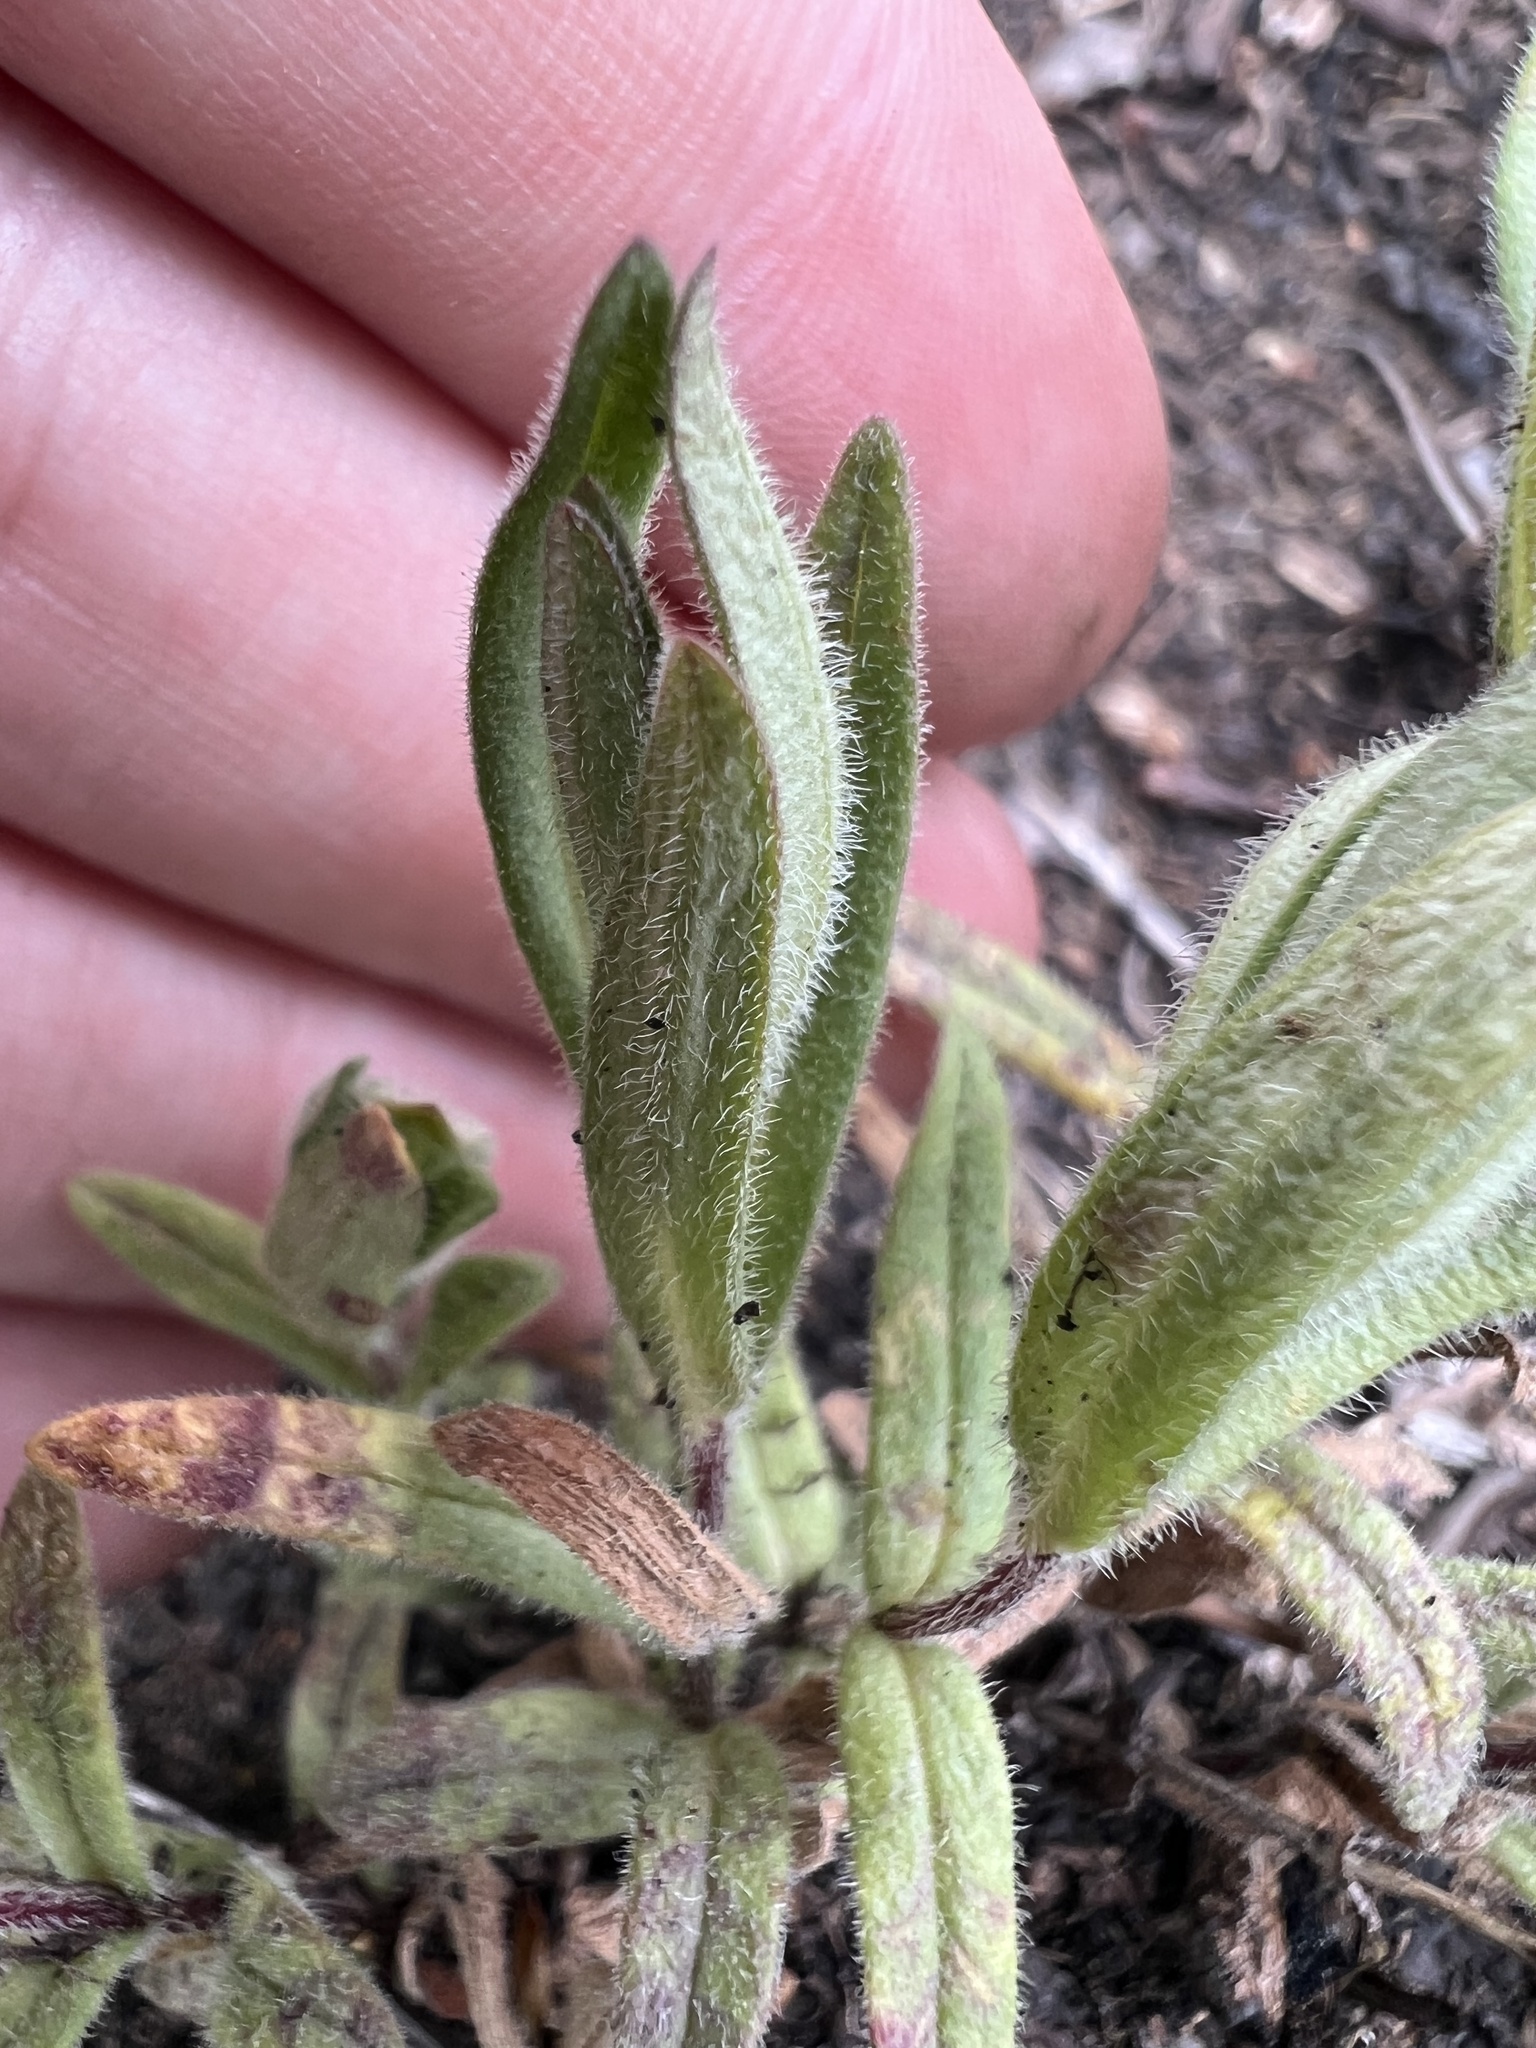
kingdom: Plantae
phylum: Tracheophyta
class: Magnoliopsida
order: Ericales
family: Polemoniaceae
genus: Phlox
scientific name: Phlox amoena
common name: Hairy phlox
